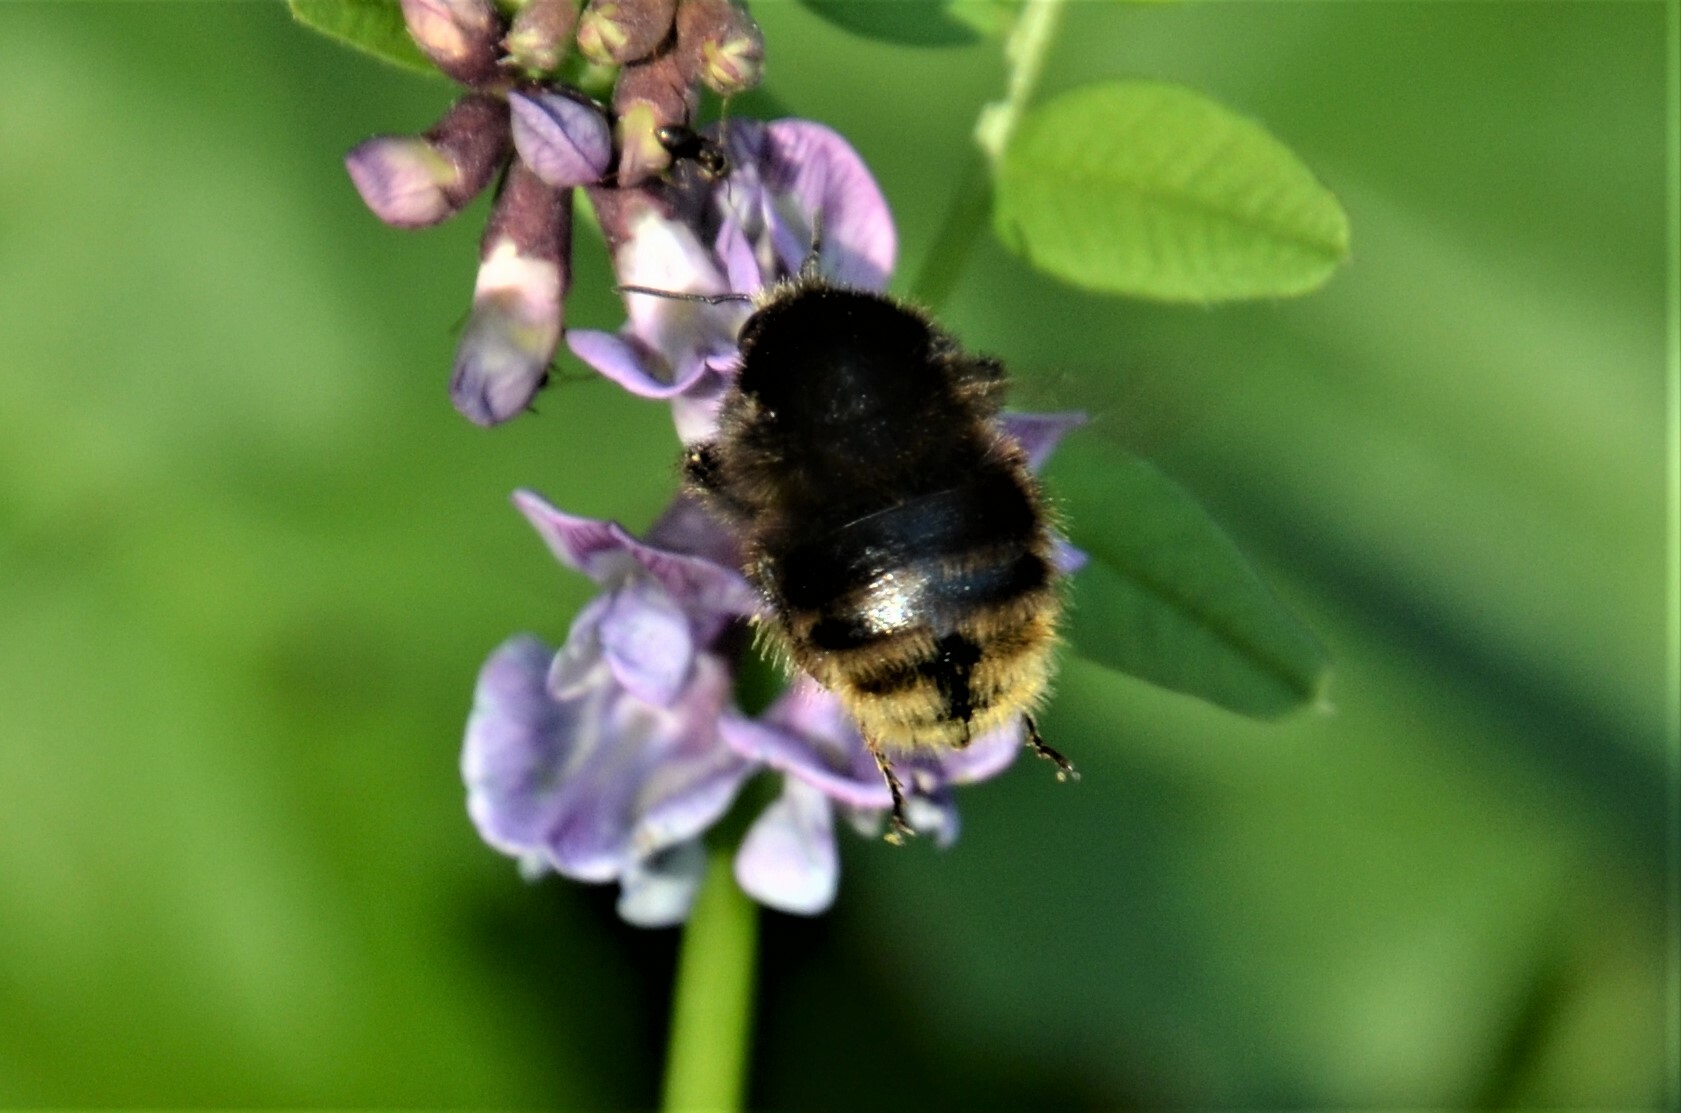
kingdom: Animalia
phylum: Arthropoda
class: Insecta
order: Hymenoptera
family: Apidae
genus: Bombus
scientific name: Bombus humilis
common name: Brown-banded carder-bee
